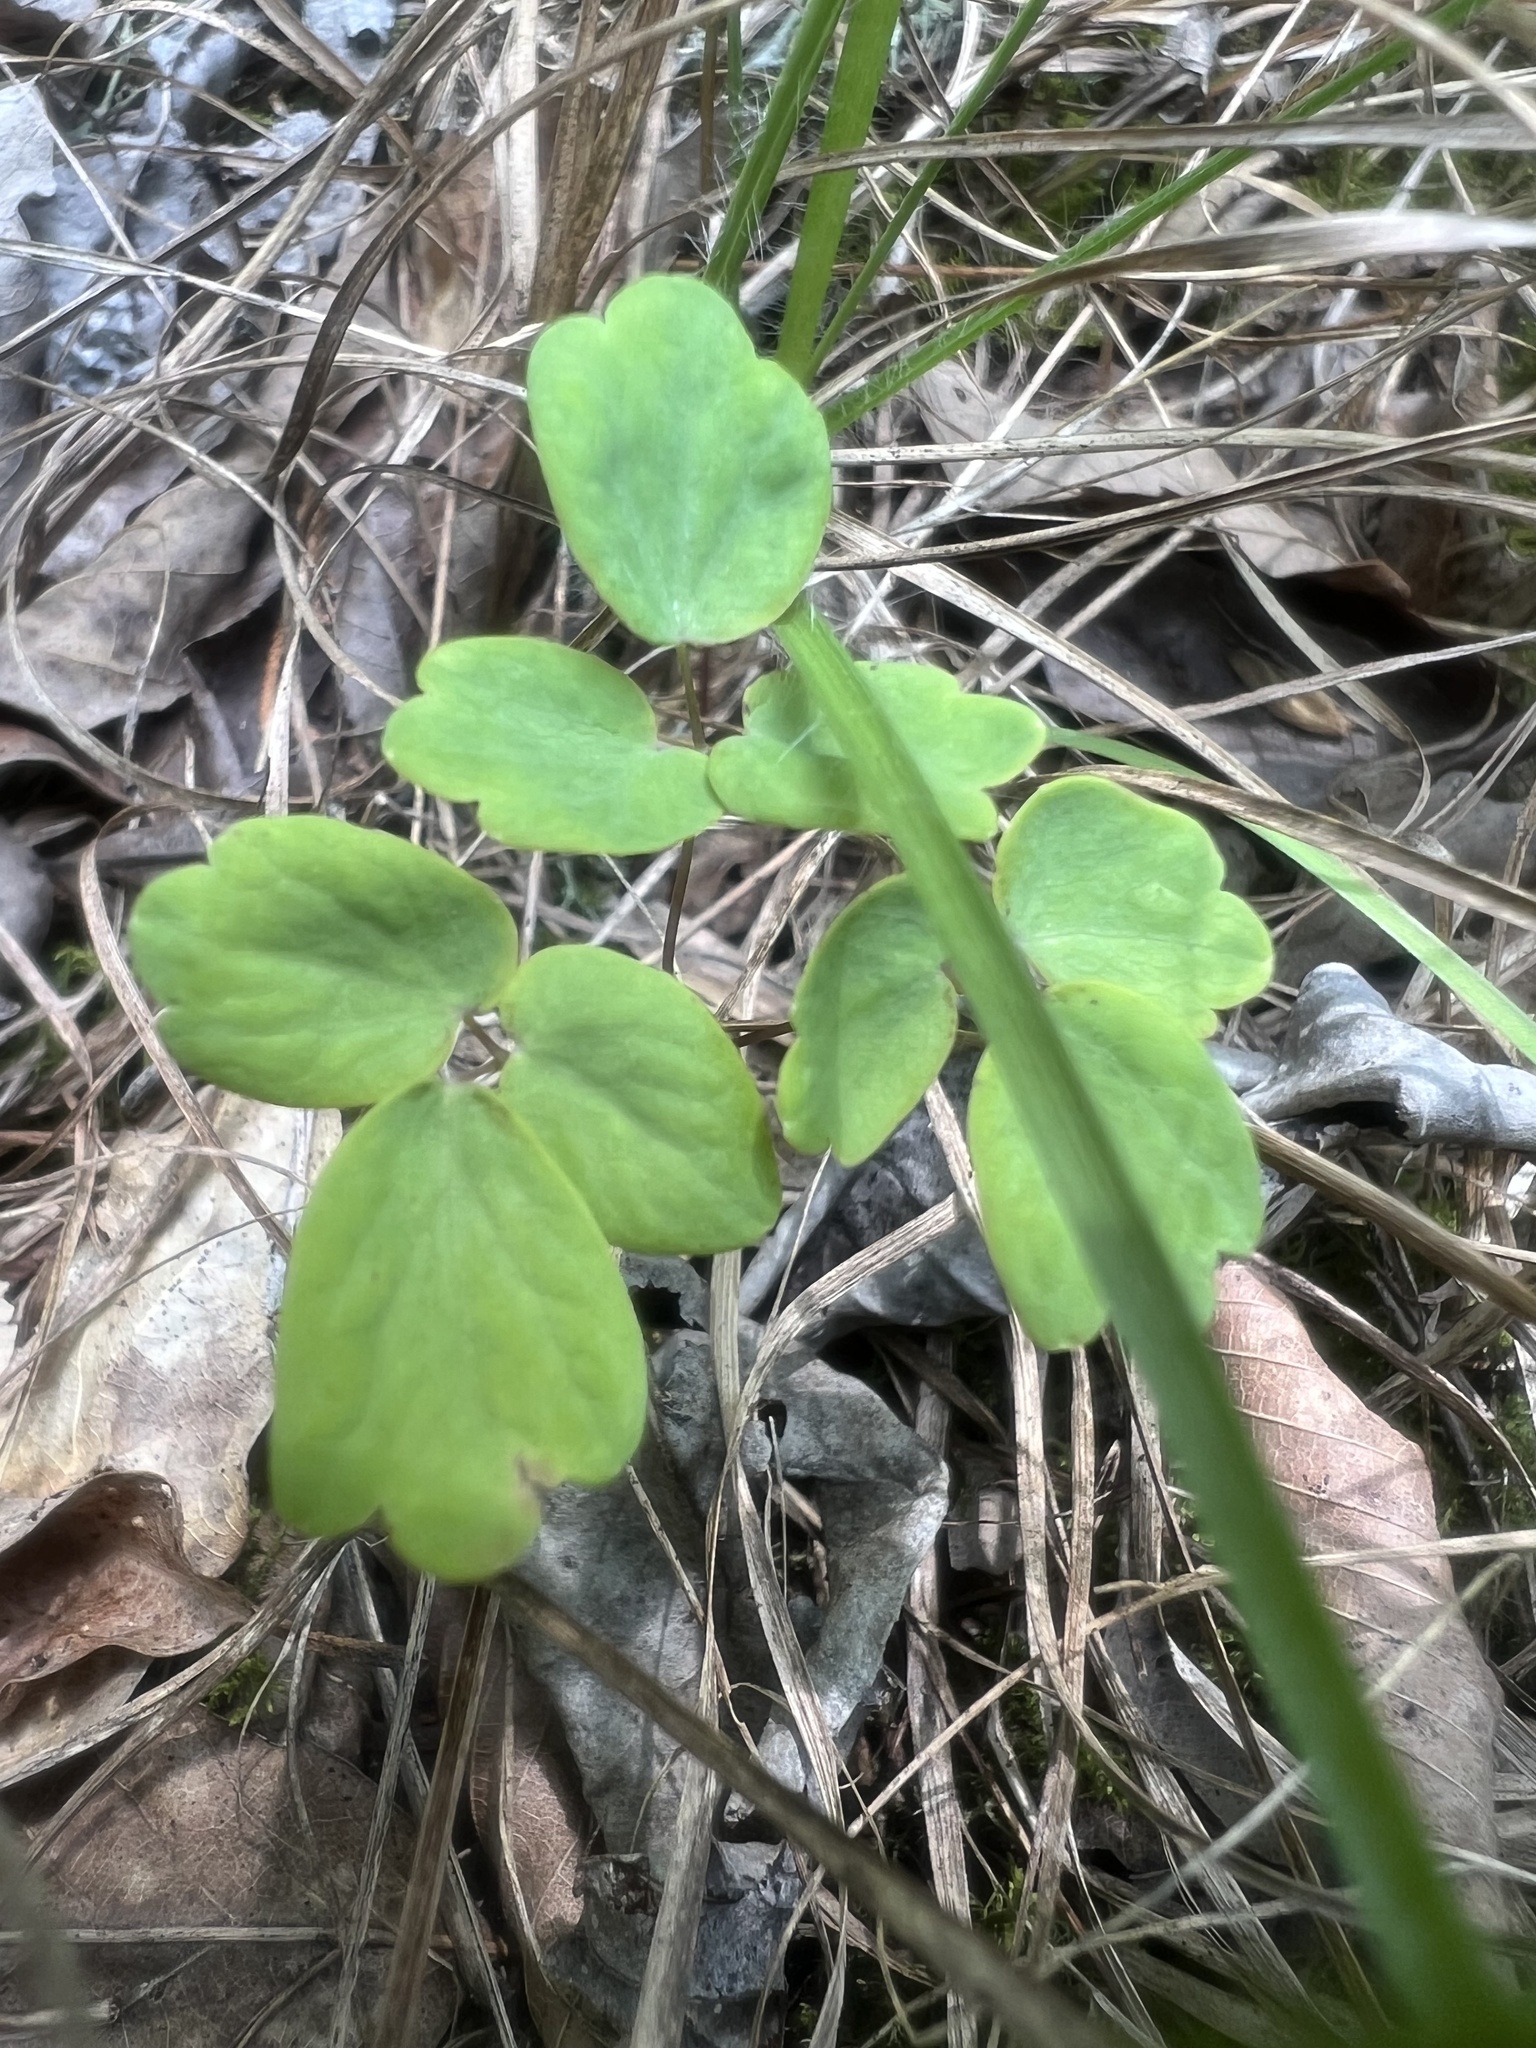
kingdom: Plantae
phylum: Tracheophyta
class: Magnoliopsida
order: Ranunculales
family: Ranunculaceae
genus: Thalictrum
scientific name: Thalictrum thalictroides
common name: Rue-anemone
